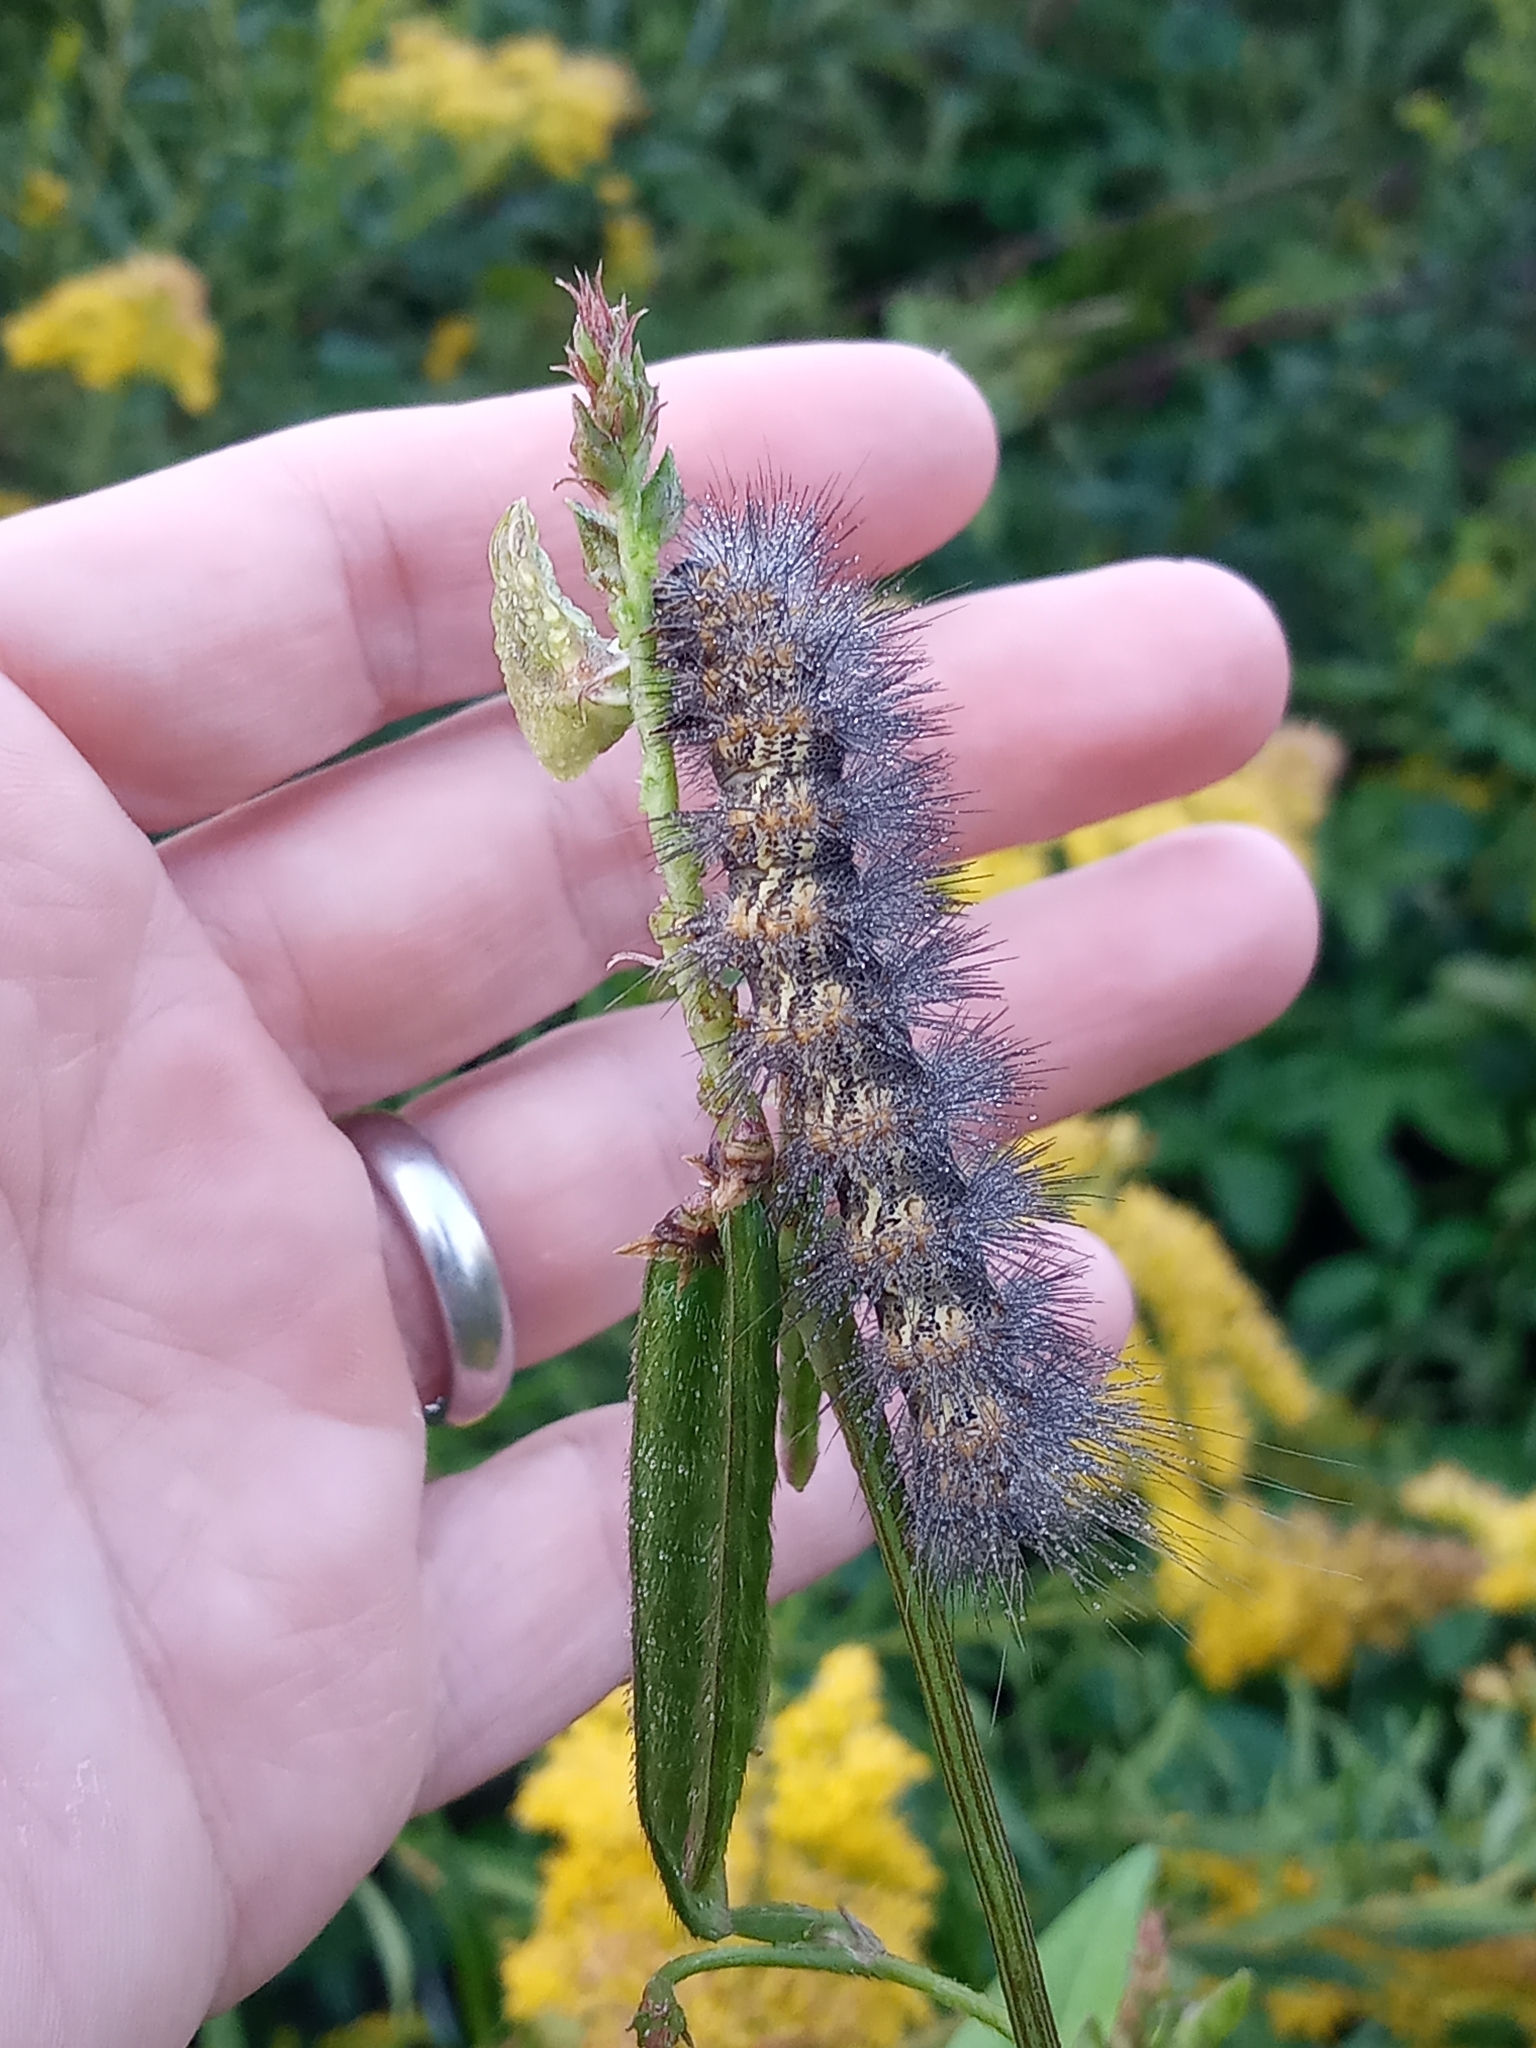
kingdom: Animalia
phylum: Arthropoda
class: Insecta
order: Lepidoptera
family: Erebidae
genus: Estigmene
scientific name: Estigmene acrea
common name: Salt marsh moth
